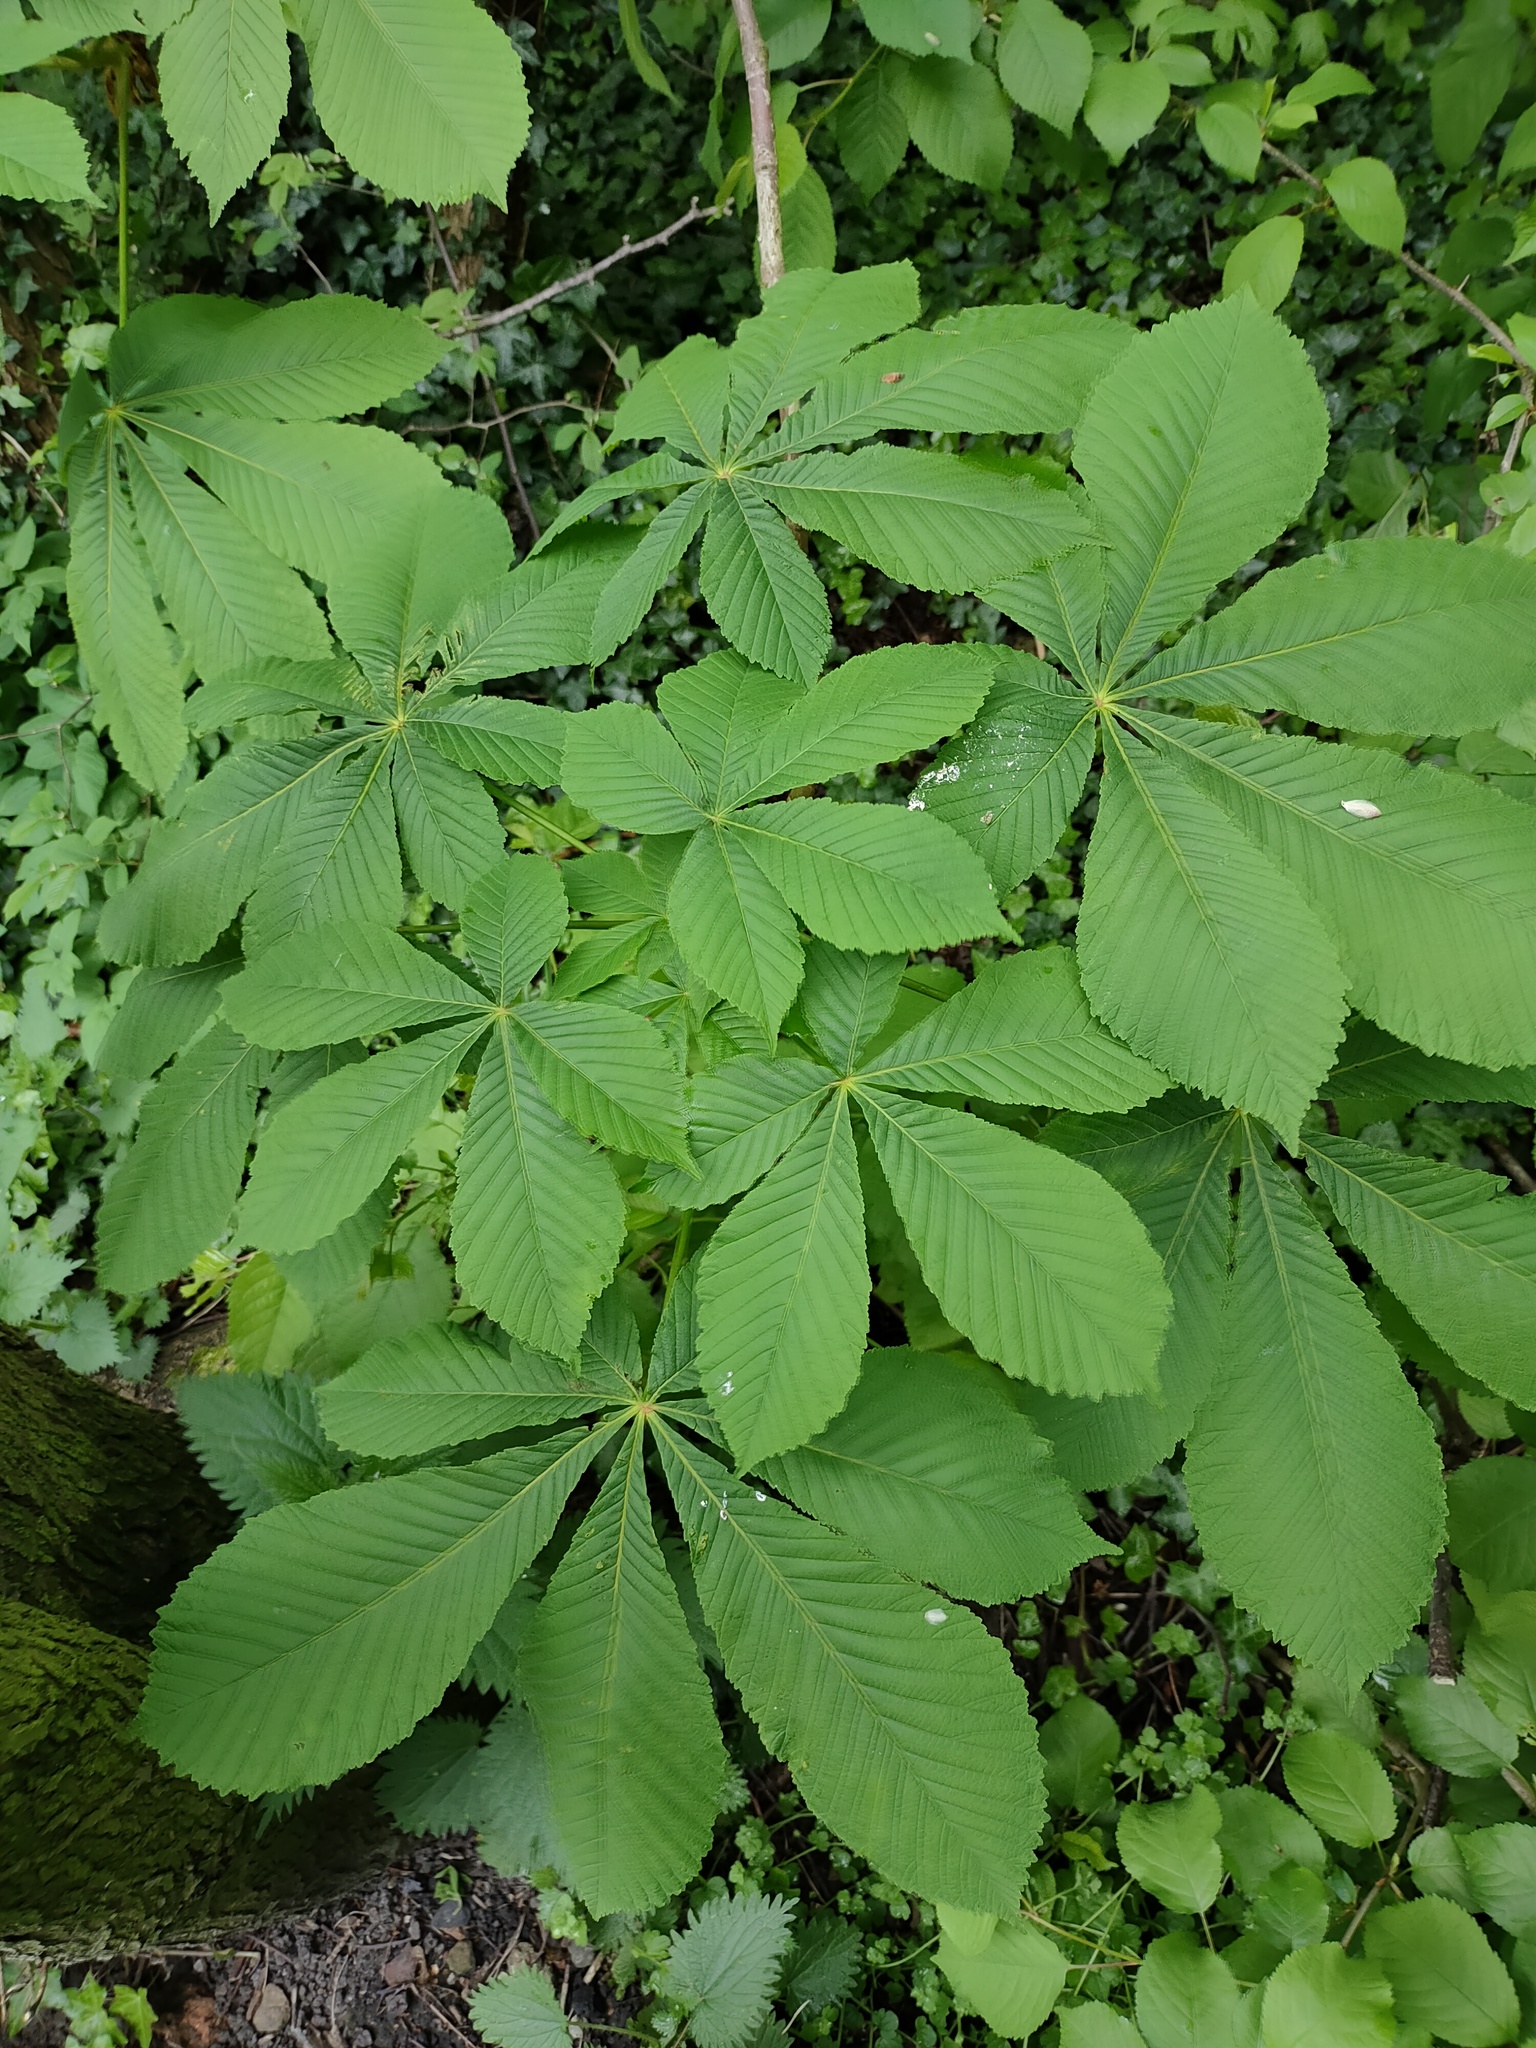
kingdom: Plantae
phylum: Tracheophyta
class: Magnoliopsida
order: Sapindales
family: Sapindaceae
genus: Aesculus
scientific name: Aesculus hippocastanum
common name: Horse-chestnut
